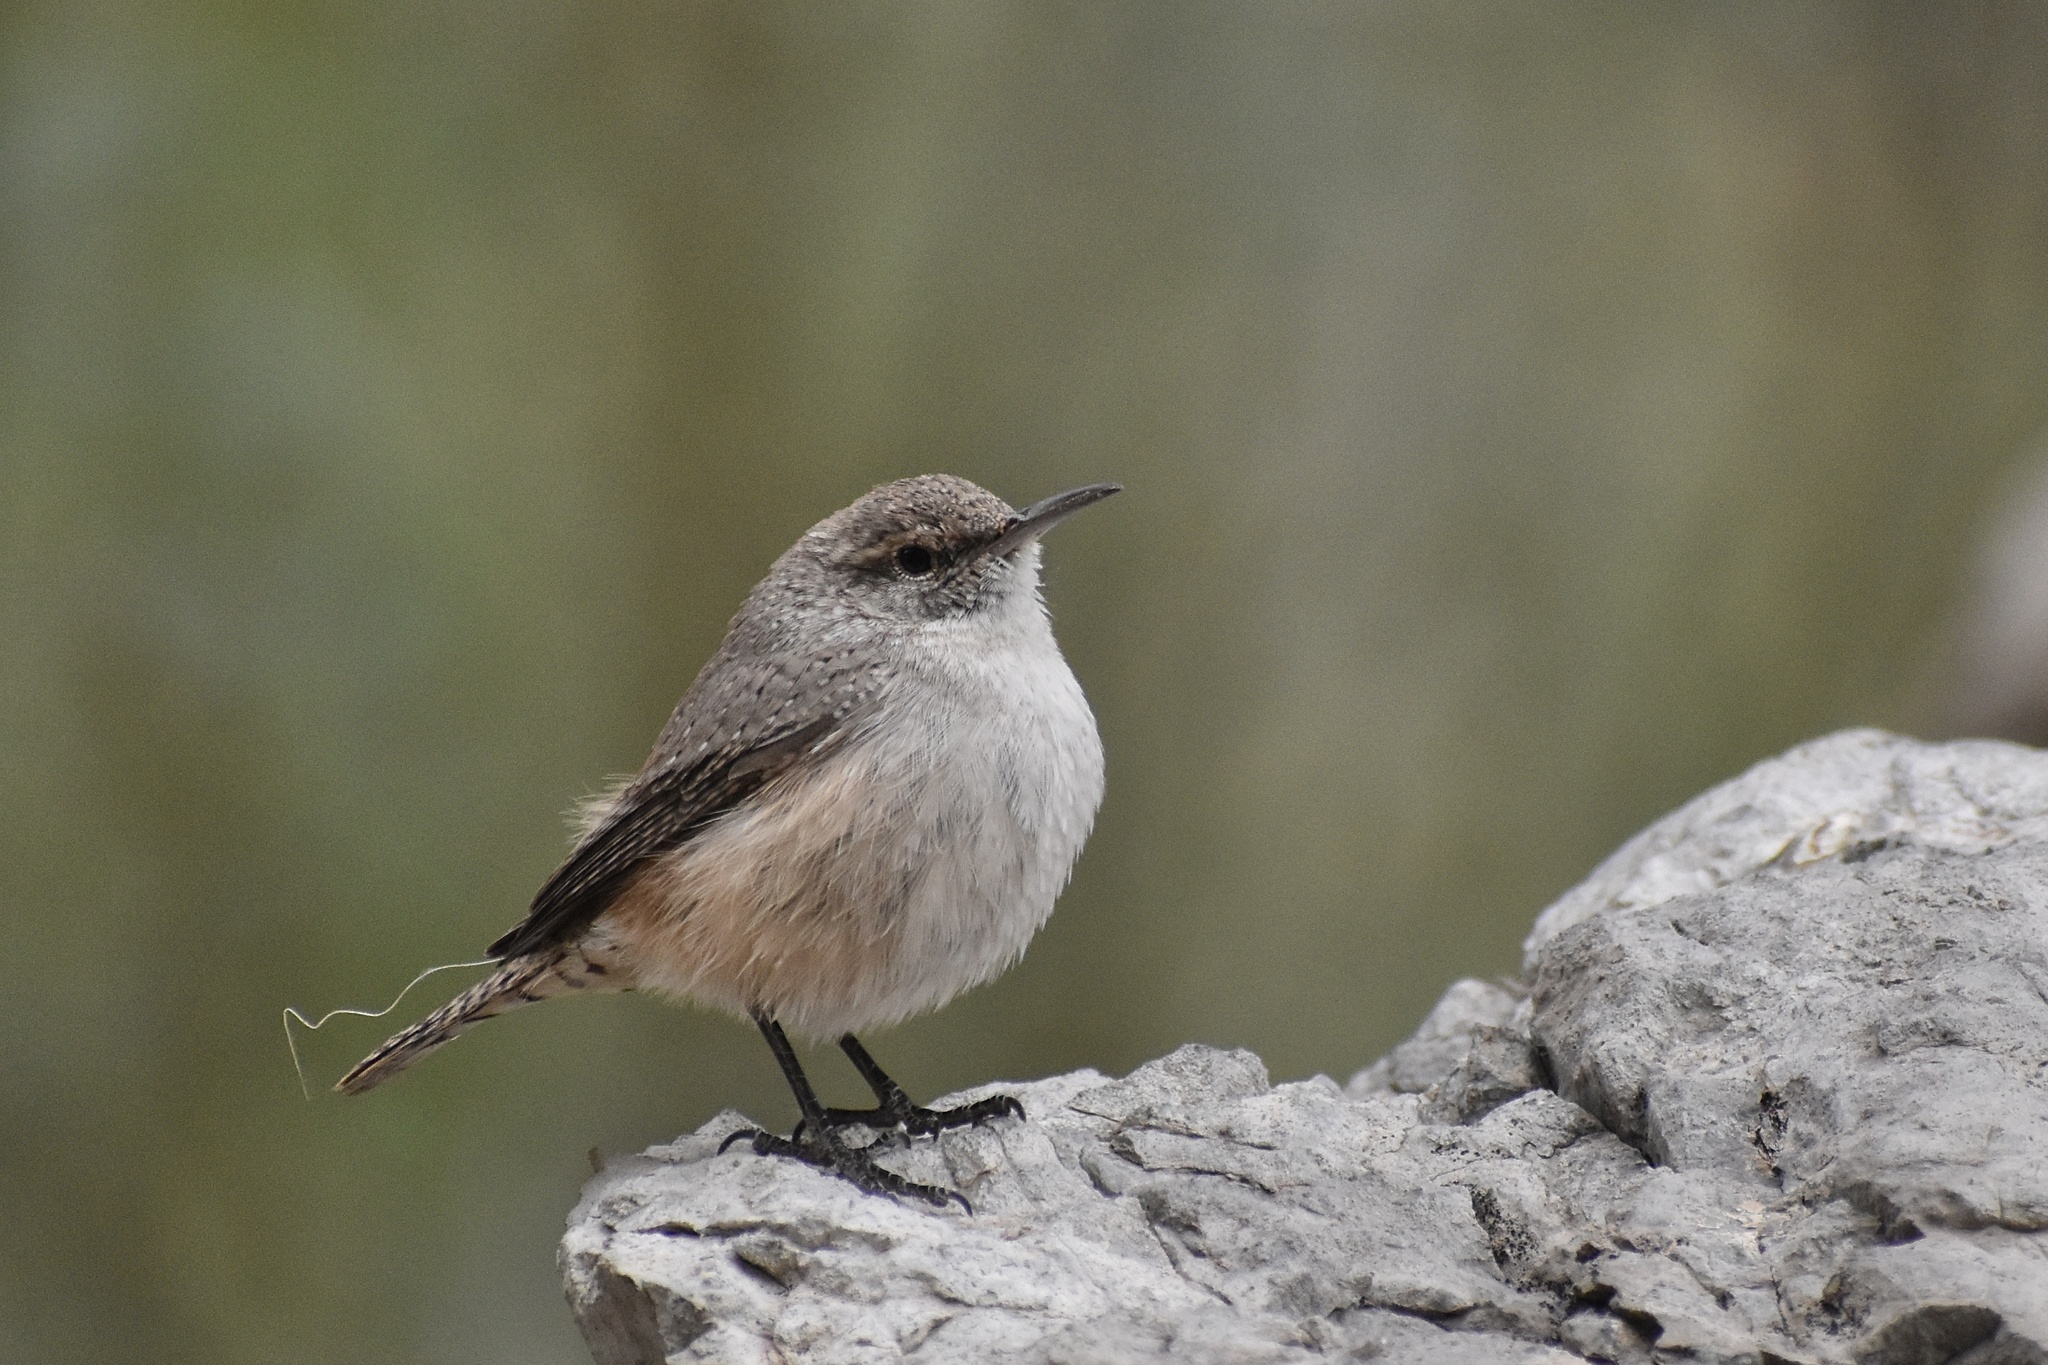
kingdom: Animalia
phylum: Chordata
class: Aves
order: Passeriformes
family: Troglodytidae
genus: Salpinctes
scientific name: Salpinctes obsoletus
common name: Rock wren
